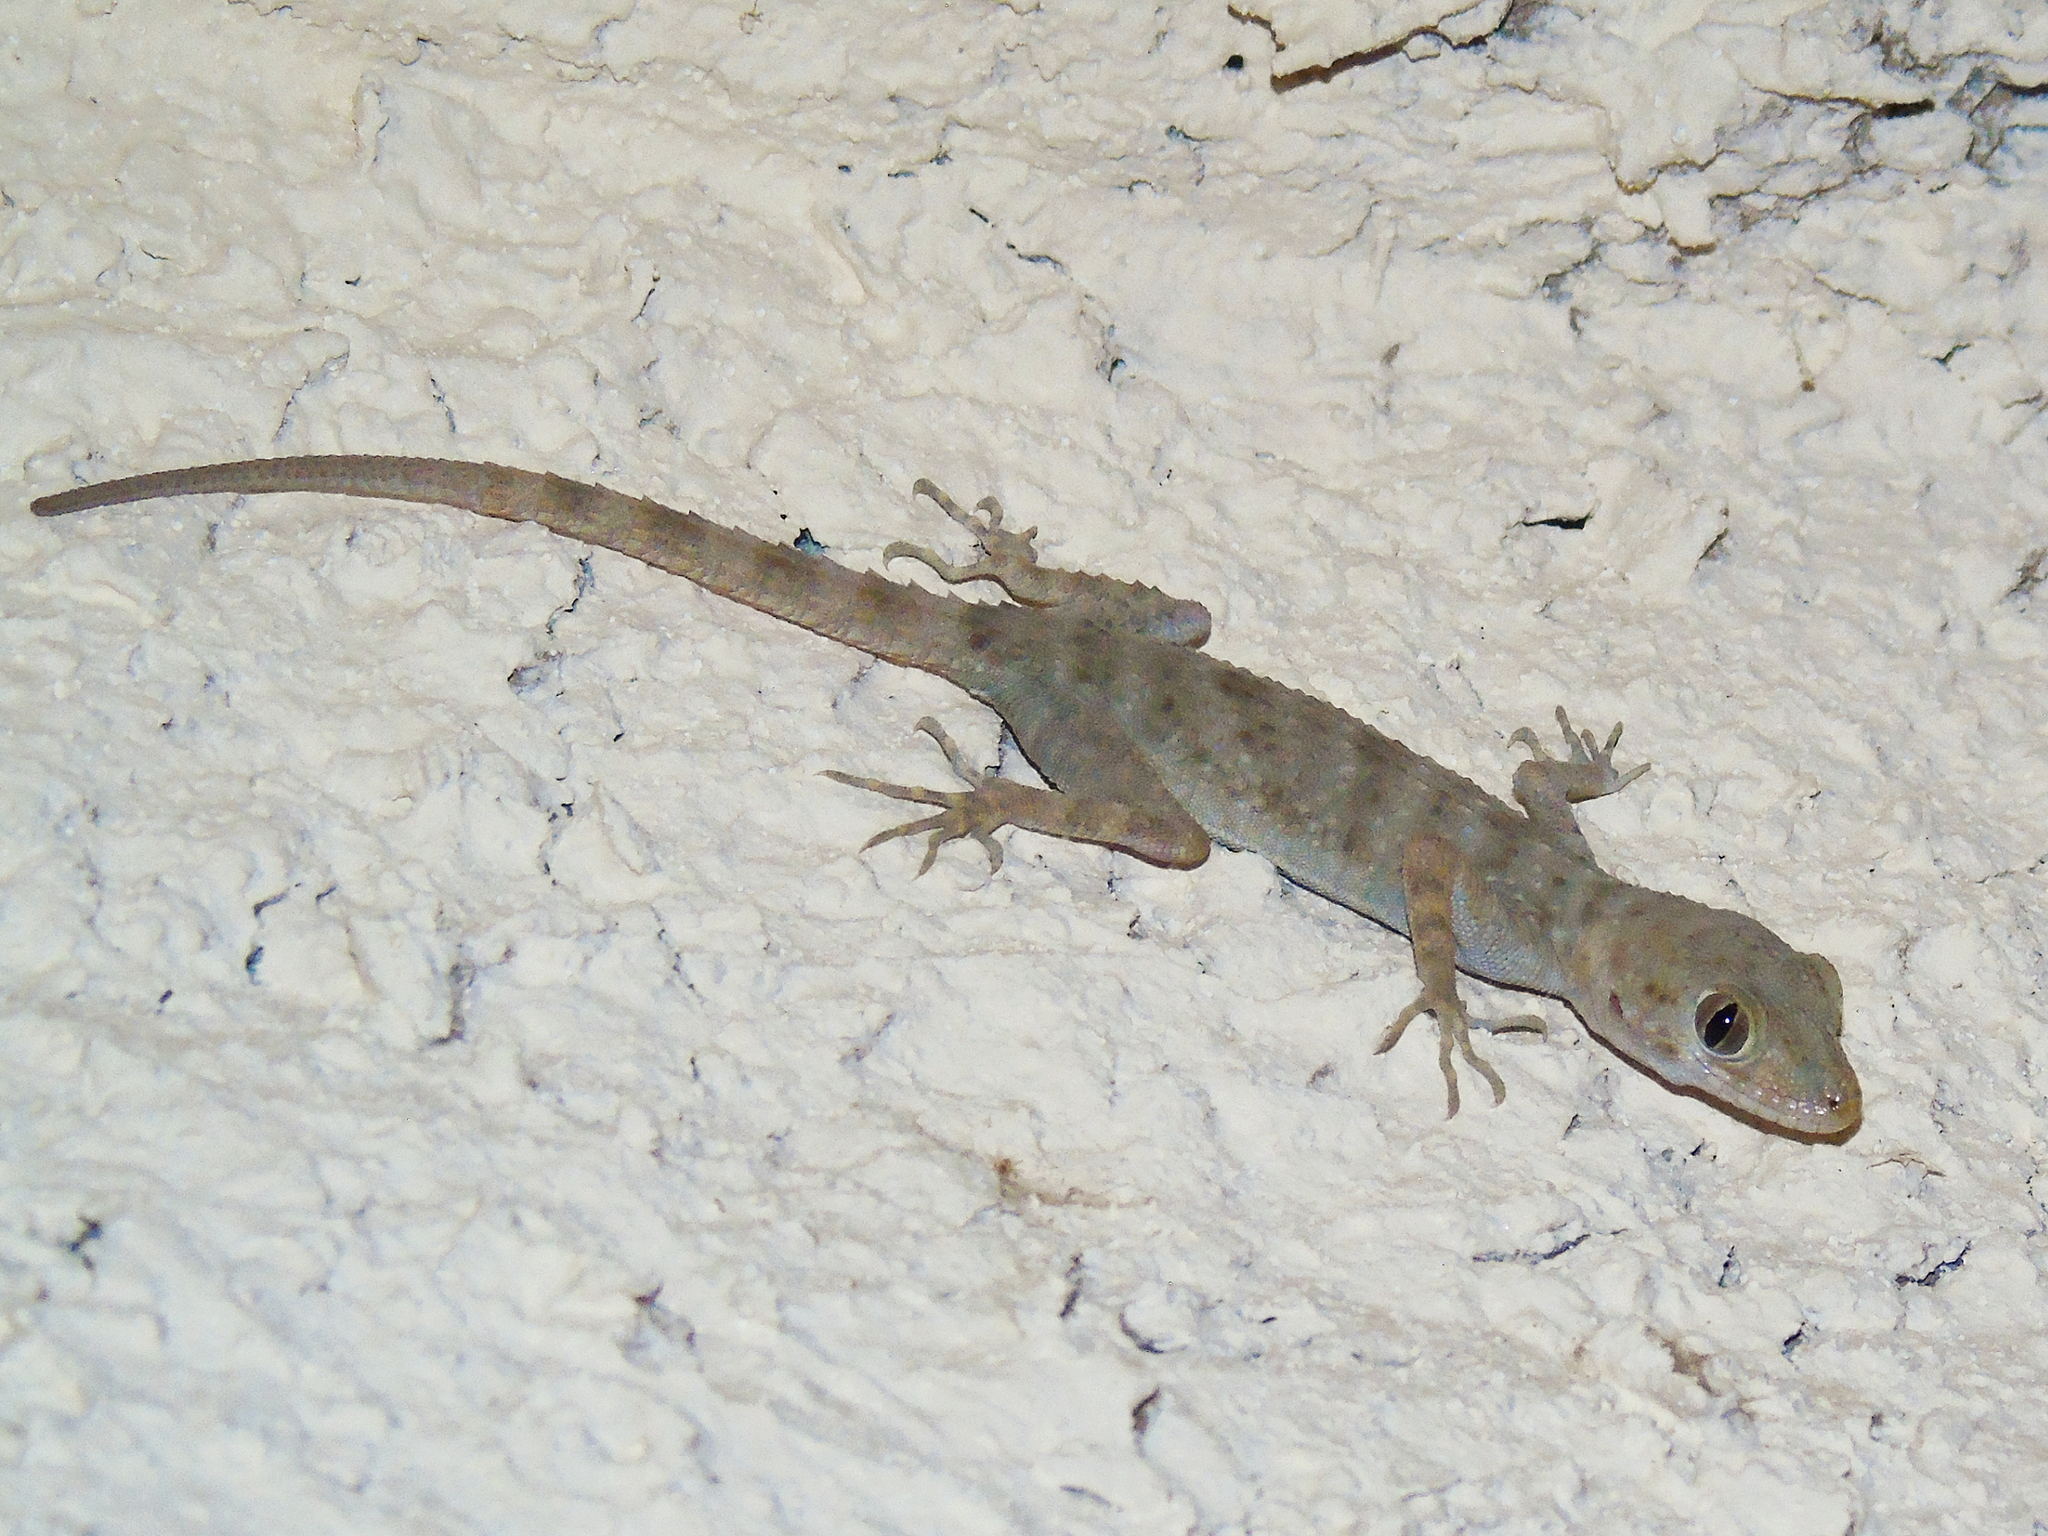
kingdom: Animalia
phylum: Chordata
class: Squamata
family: Gekkonidae
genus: Tenuidactylus
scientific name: Tenuidactylus bogdanovi
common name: Bogdanov’s thin-toed gecko
